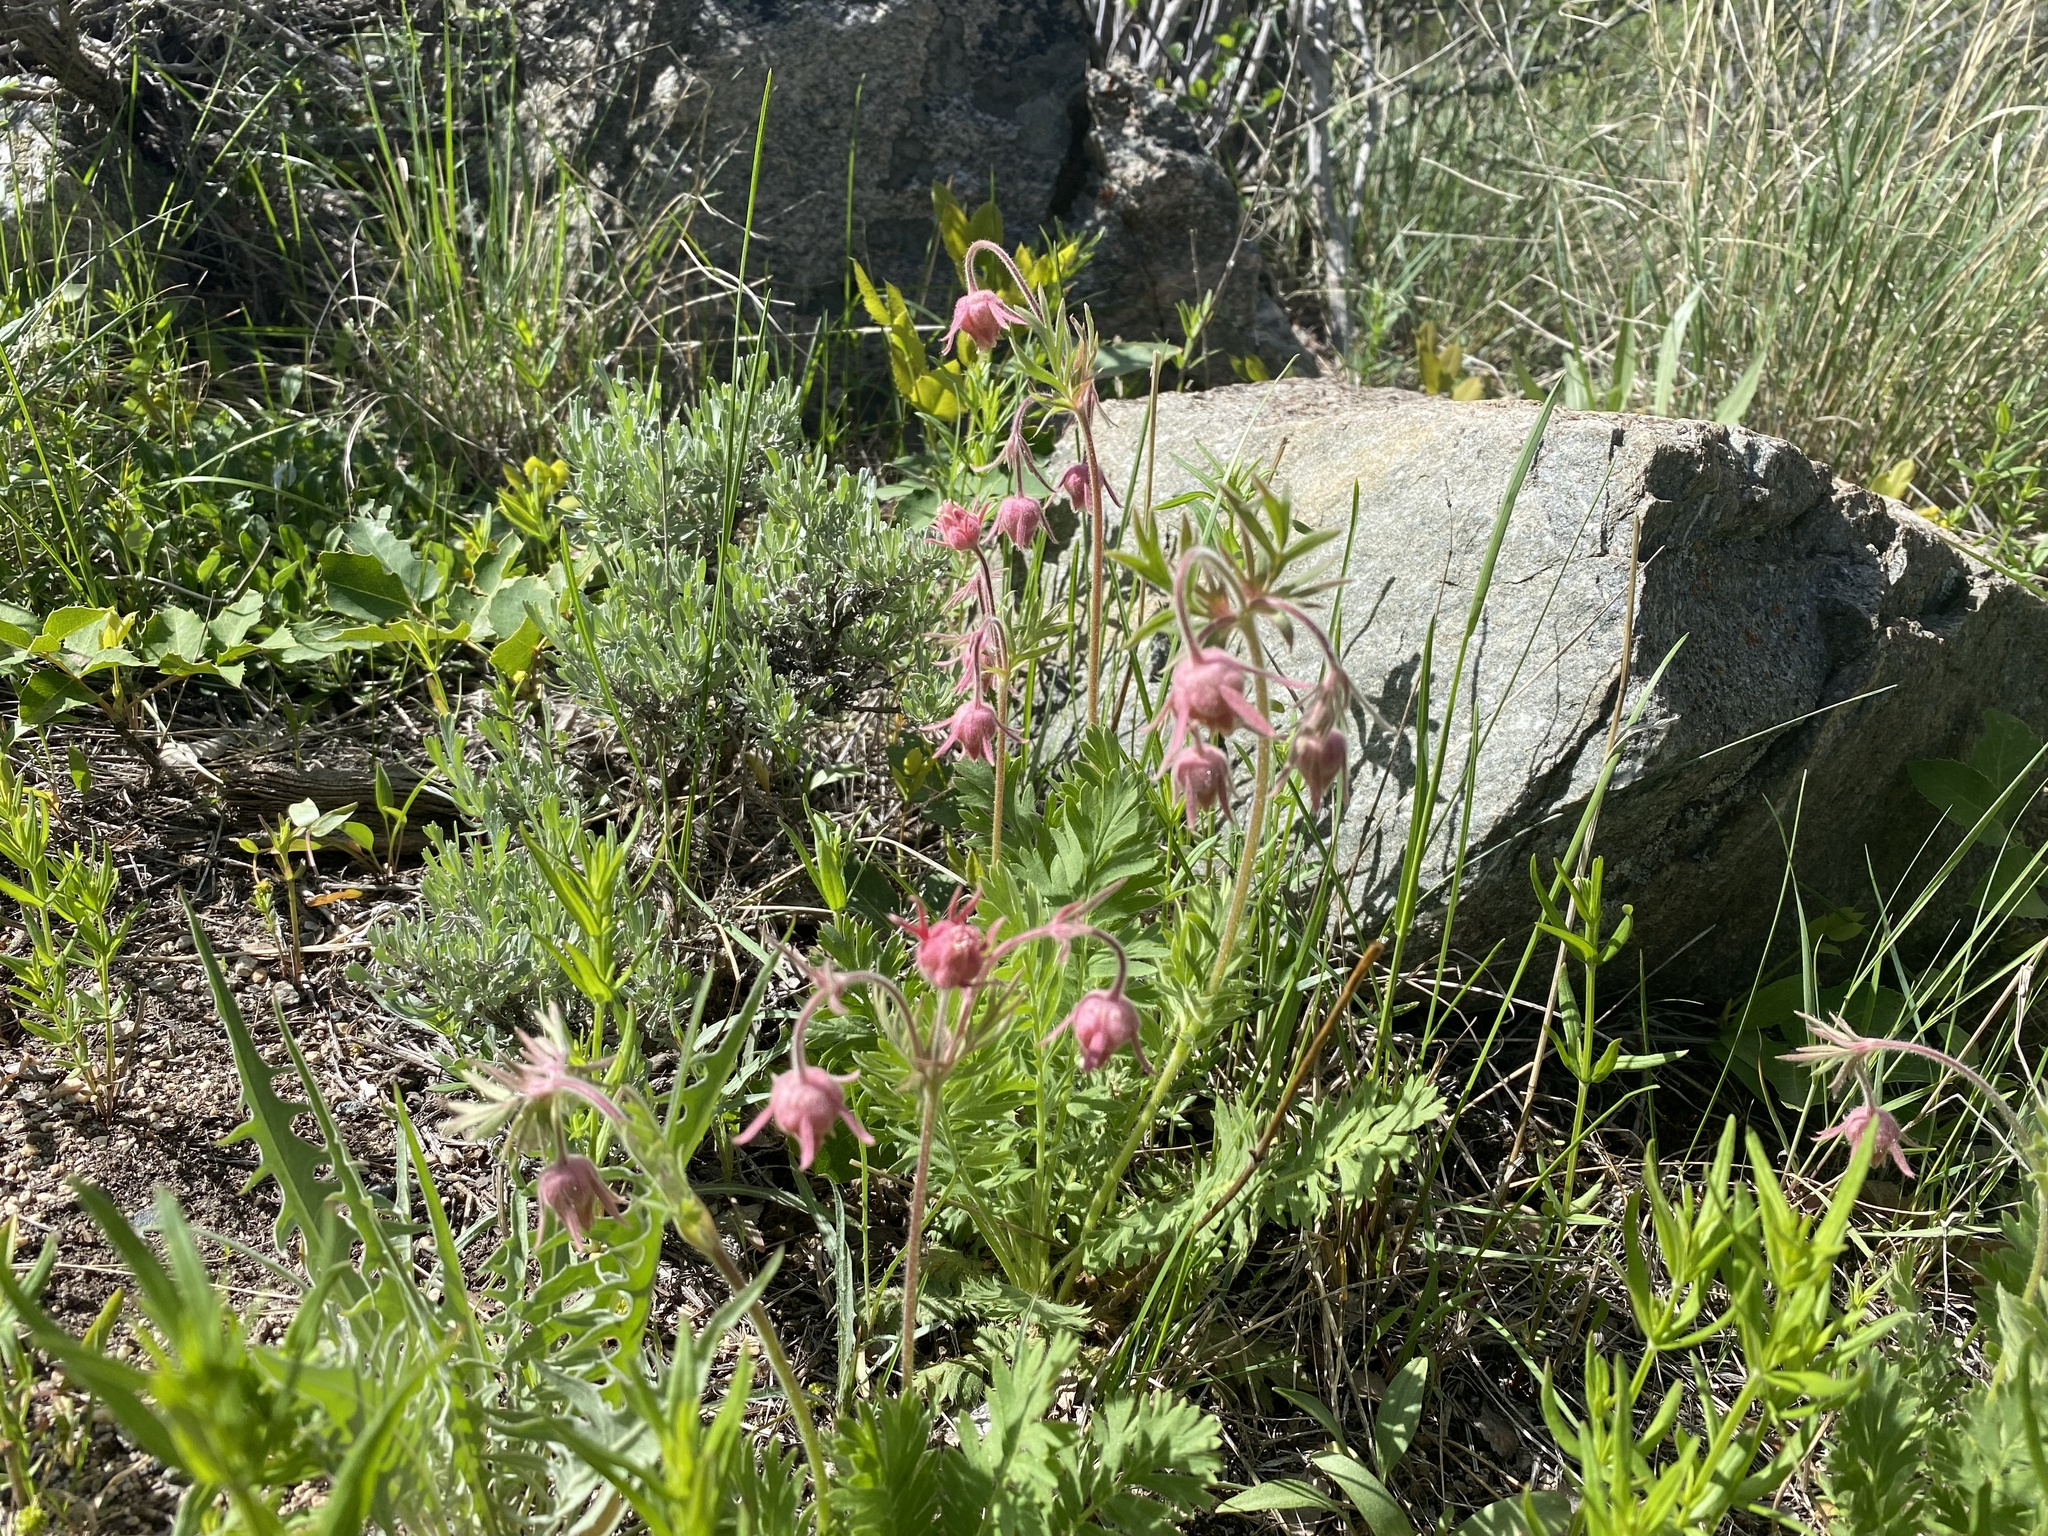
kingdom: Plantae
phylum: Tracheophyta
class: Magnoliopsida
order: Rosales
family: Rosaceae
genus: Geum
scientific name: Geum triflorum
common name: Old man's whiskers
